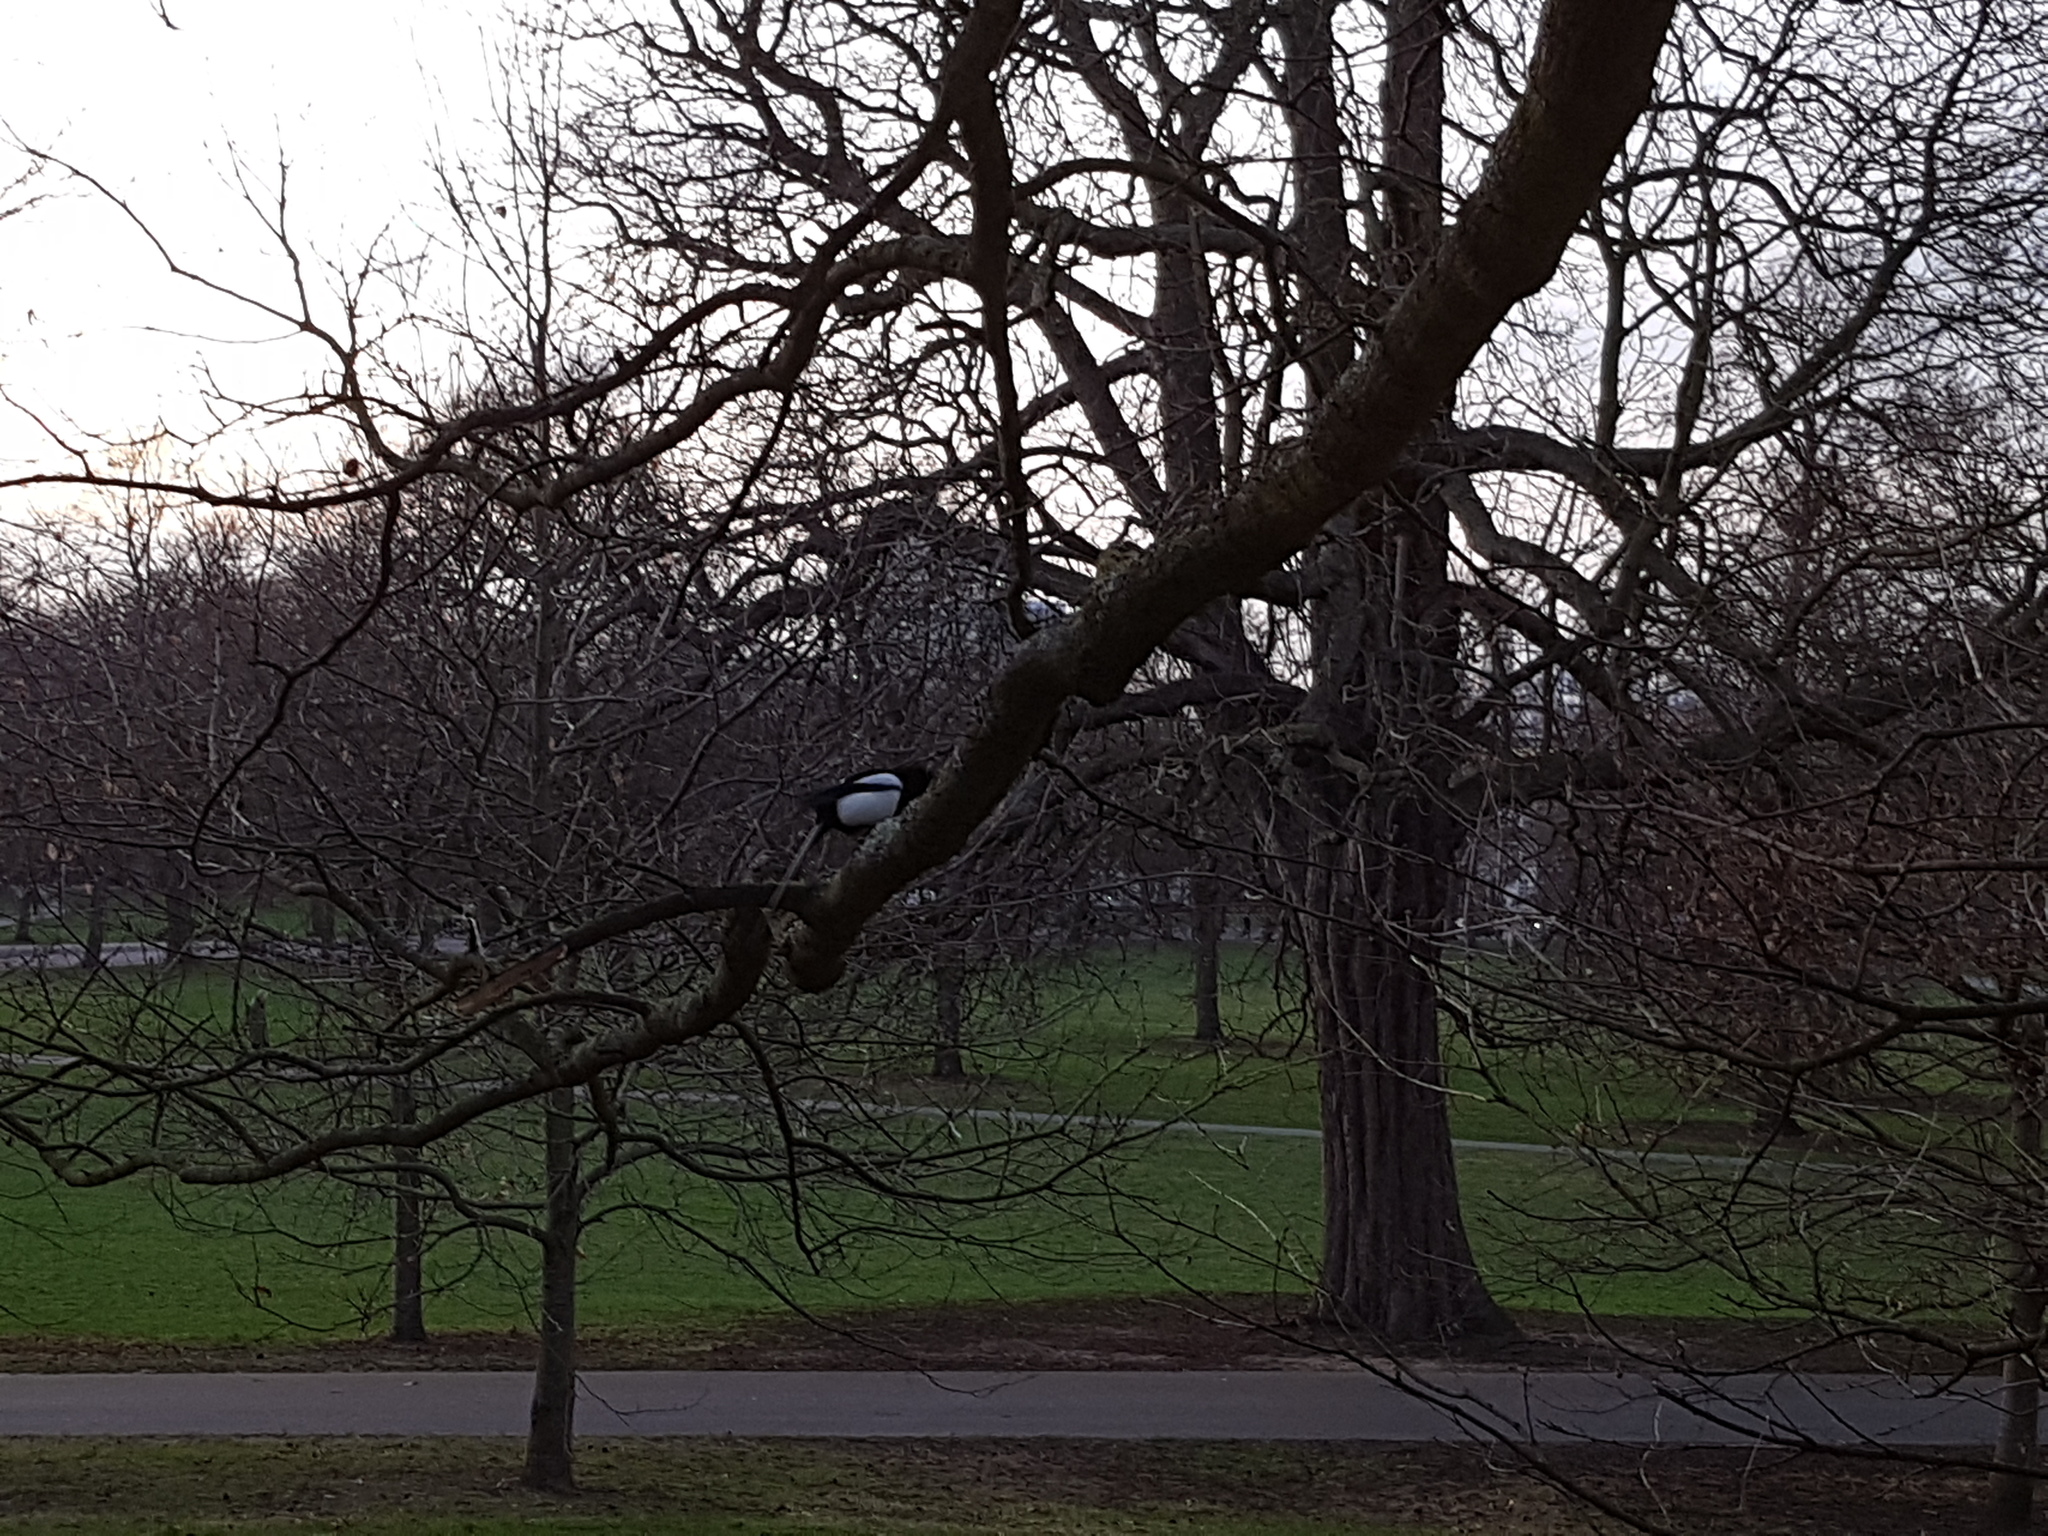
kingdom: Animalia
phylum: Chordata
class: Aves
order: Passeriformes
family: Corvidae
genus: Pica
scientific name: Pica pica
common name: Eurasian magpie
